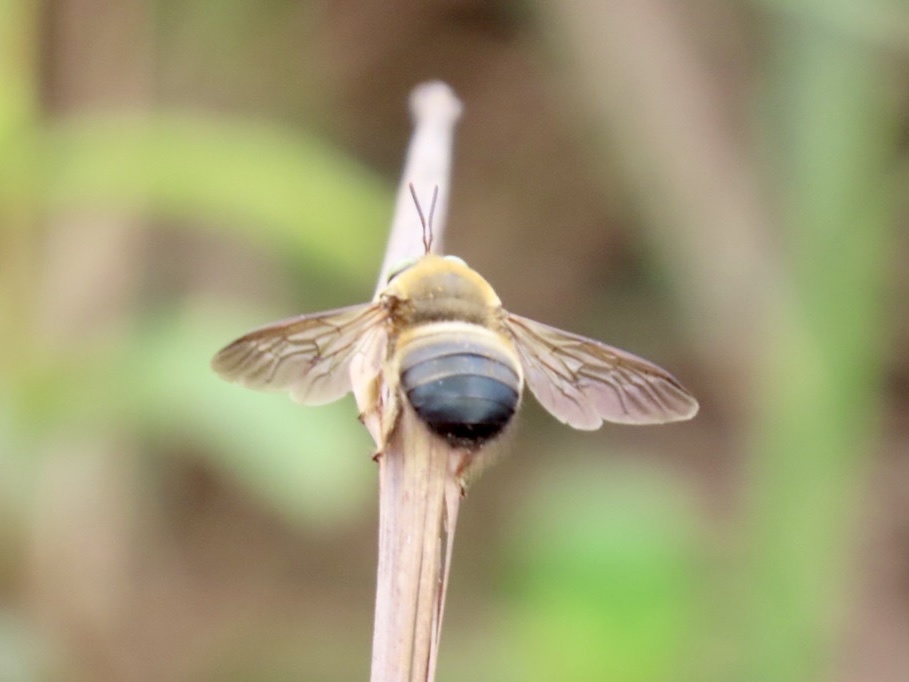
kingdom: Animalia
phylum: Arthropoda
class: Insecta
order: Hymenoptera
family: Apidae
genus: Xylocopa
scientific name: Xylocopa dejeanii
